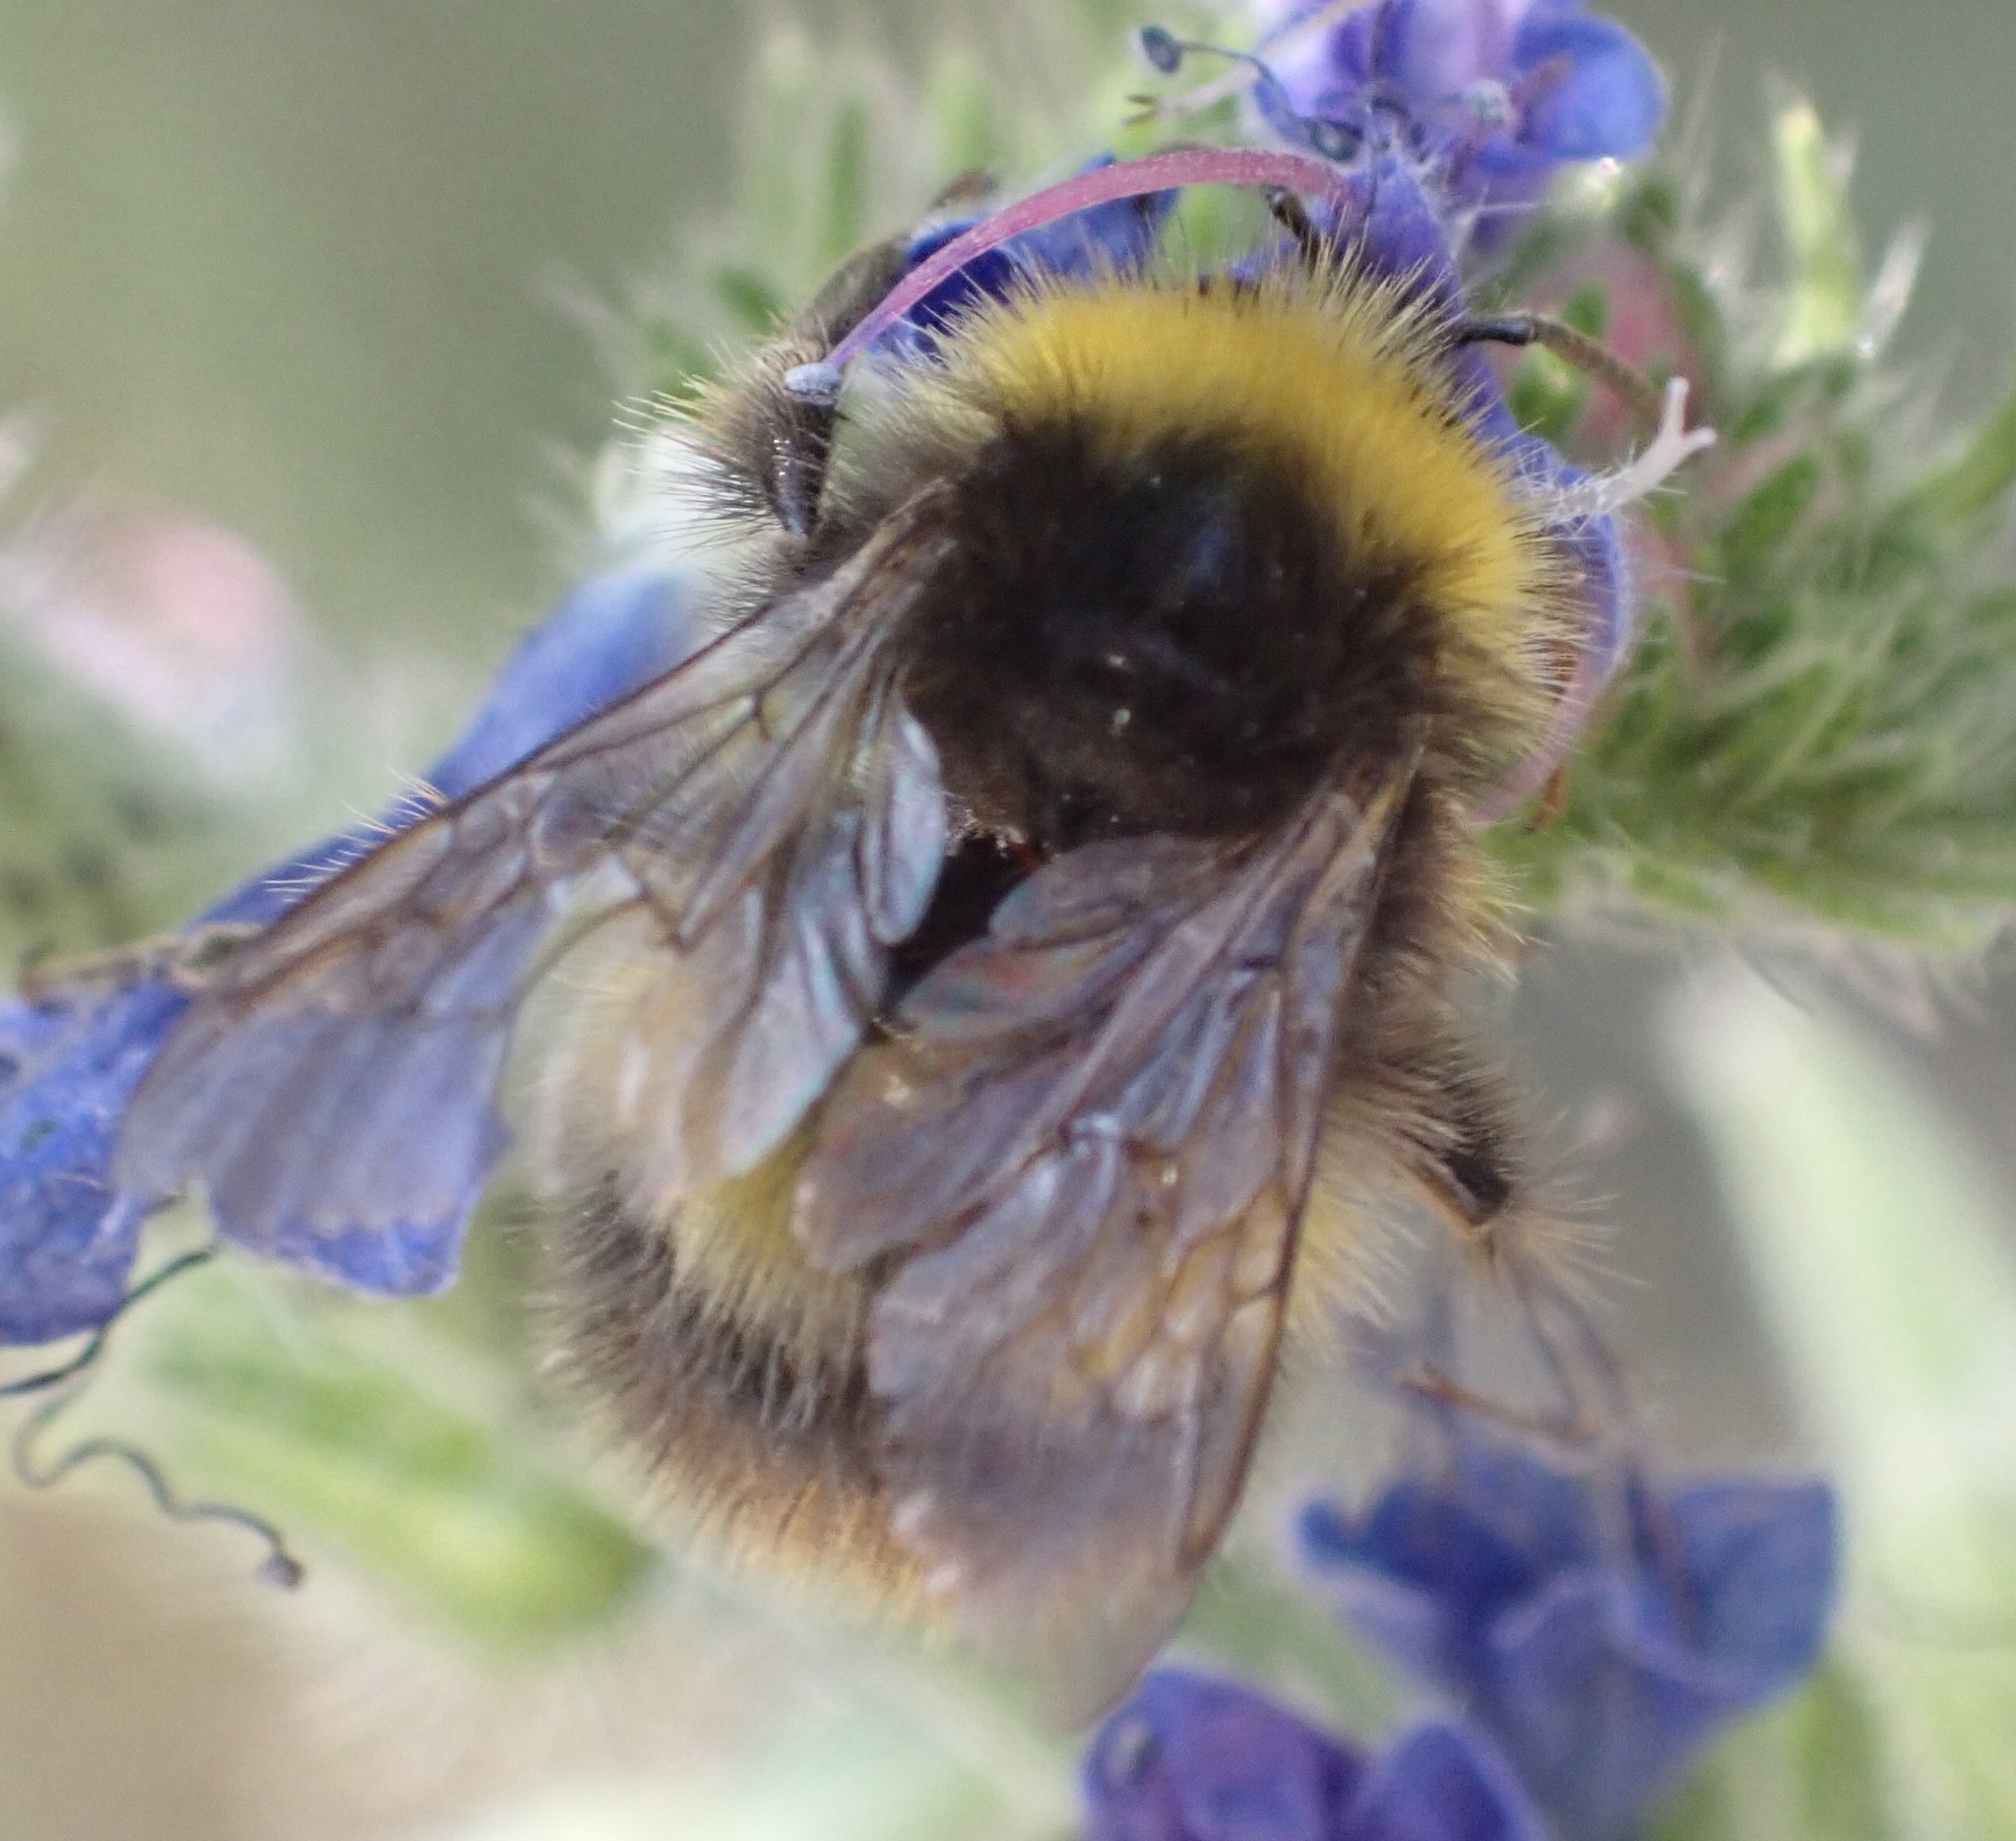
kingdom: Animalia
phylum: Arthropoda
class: Insecta
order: Hymenoptera
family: Apidae
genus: Bombus
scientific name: Bombus pratorum
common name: Early humble-bee
